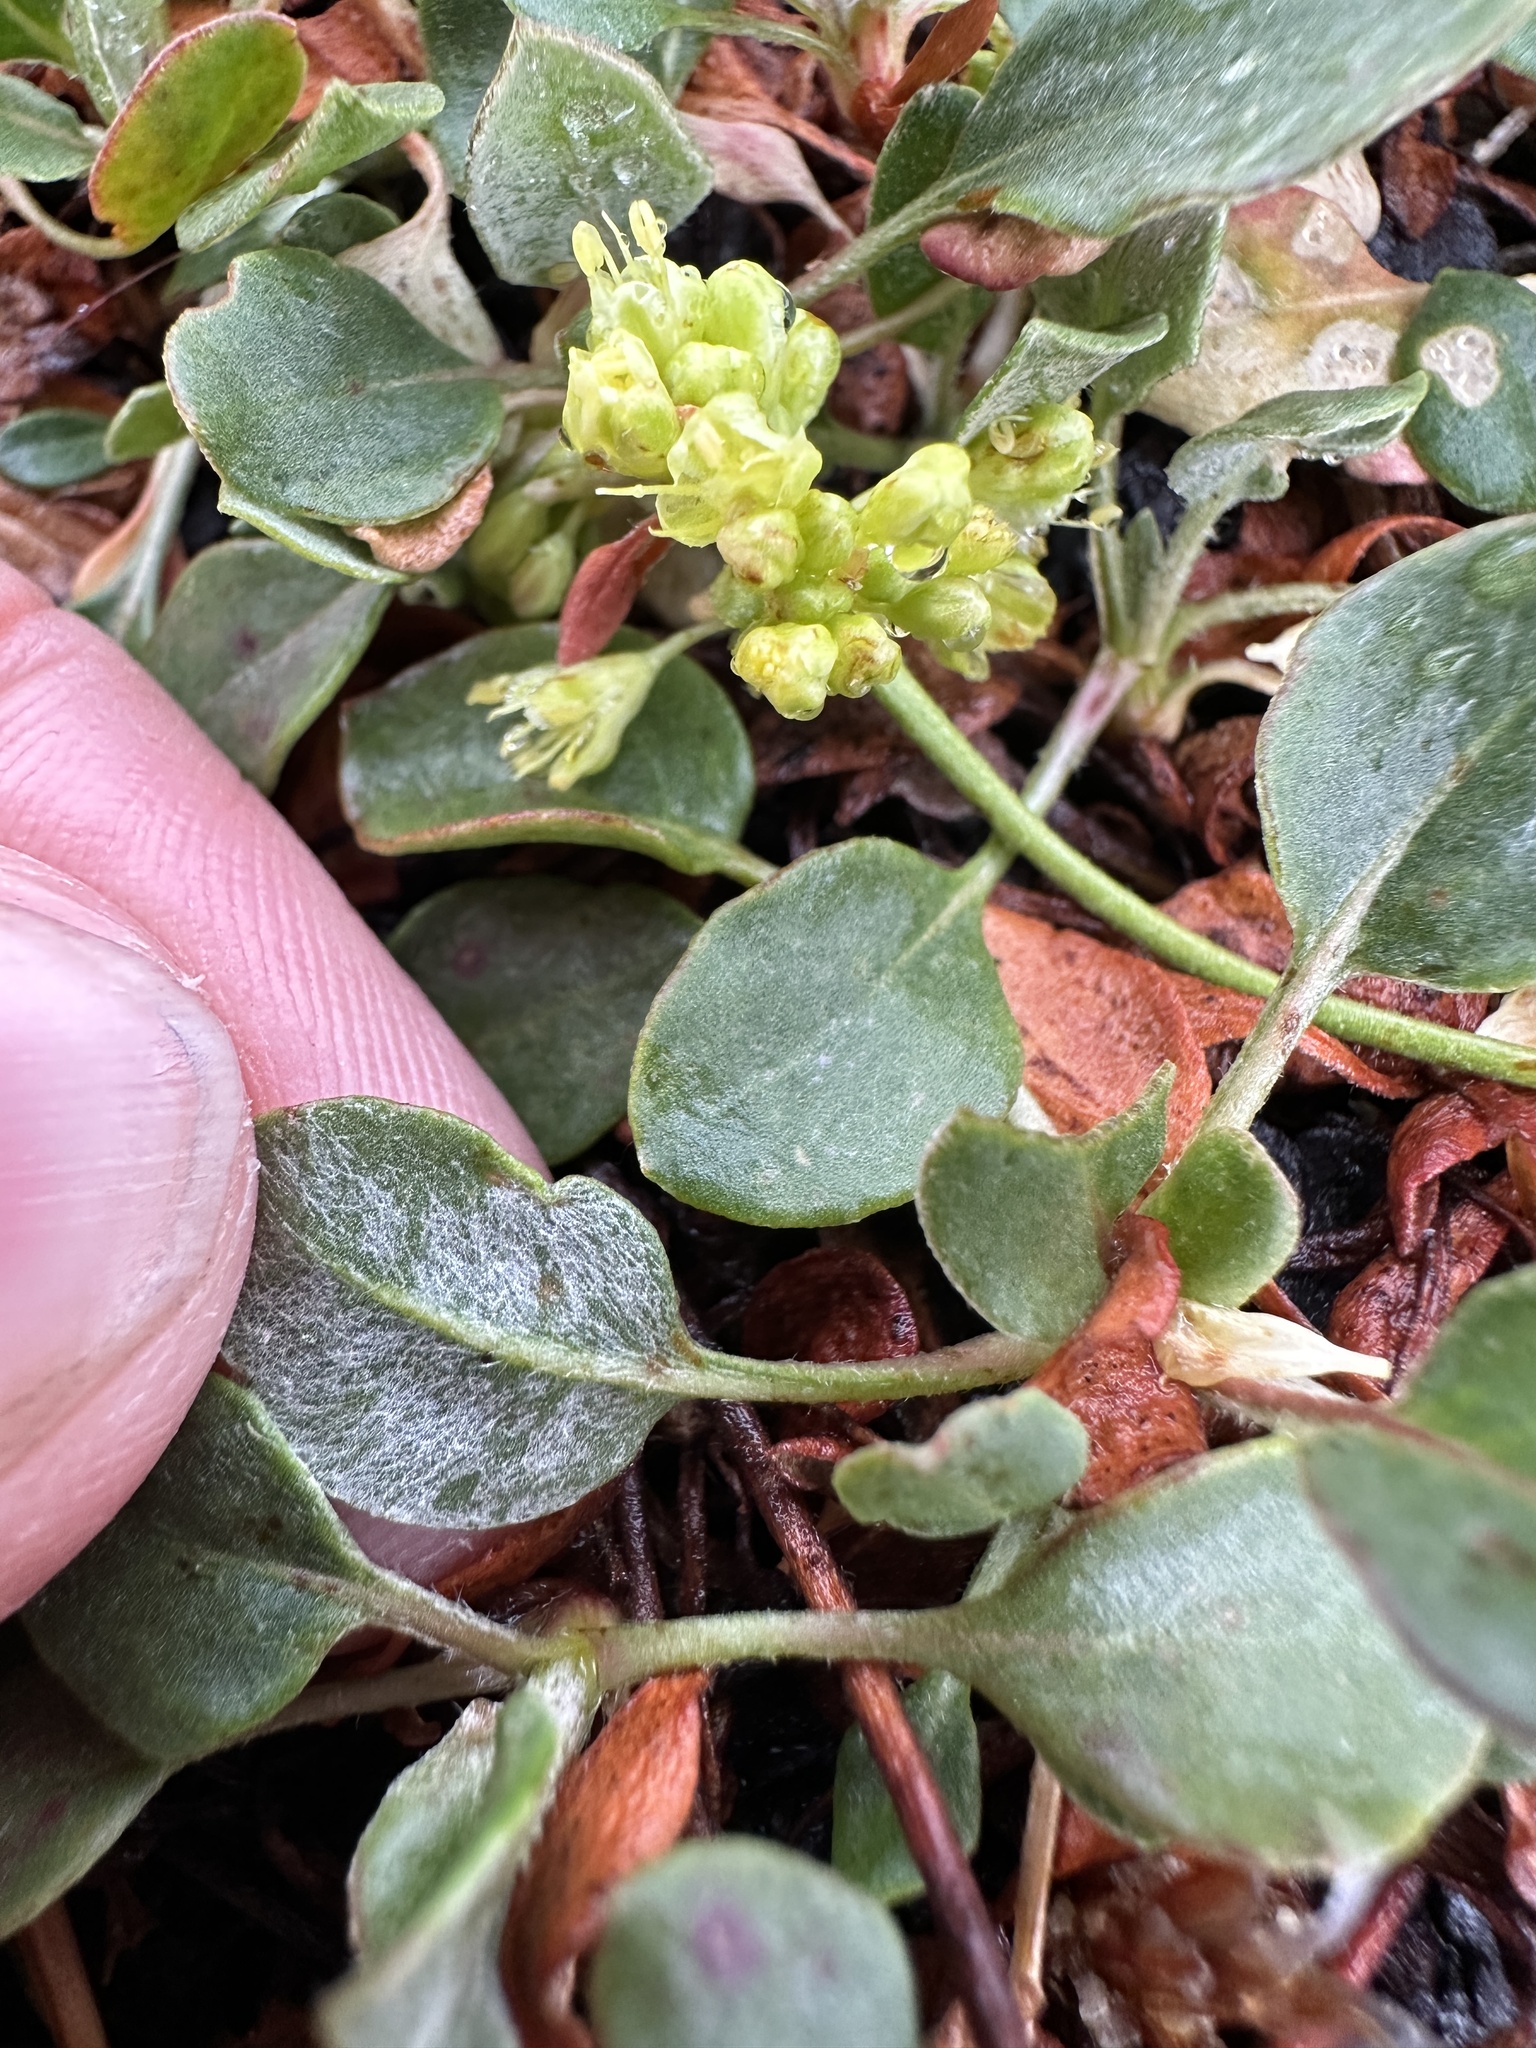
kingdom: Plantae
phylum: Tracheophyta
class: Magnoliopsida
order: Caryophyllales
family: Polygonaceae
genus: Eriogonum
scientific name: Eriogonum umbellatum
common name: Sulfur-buckwheat
